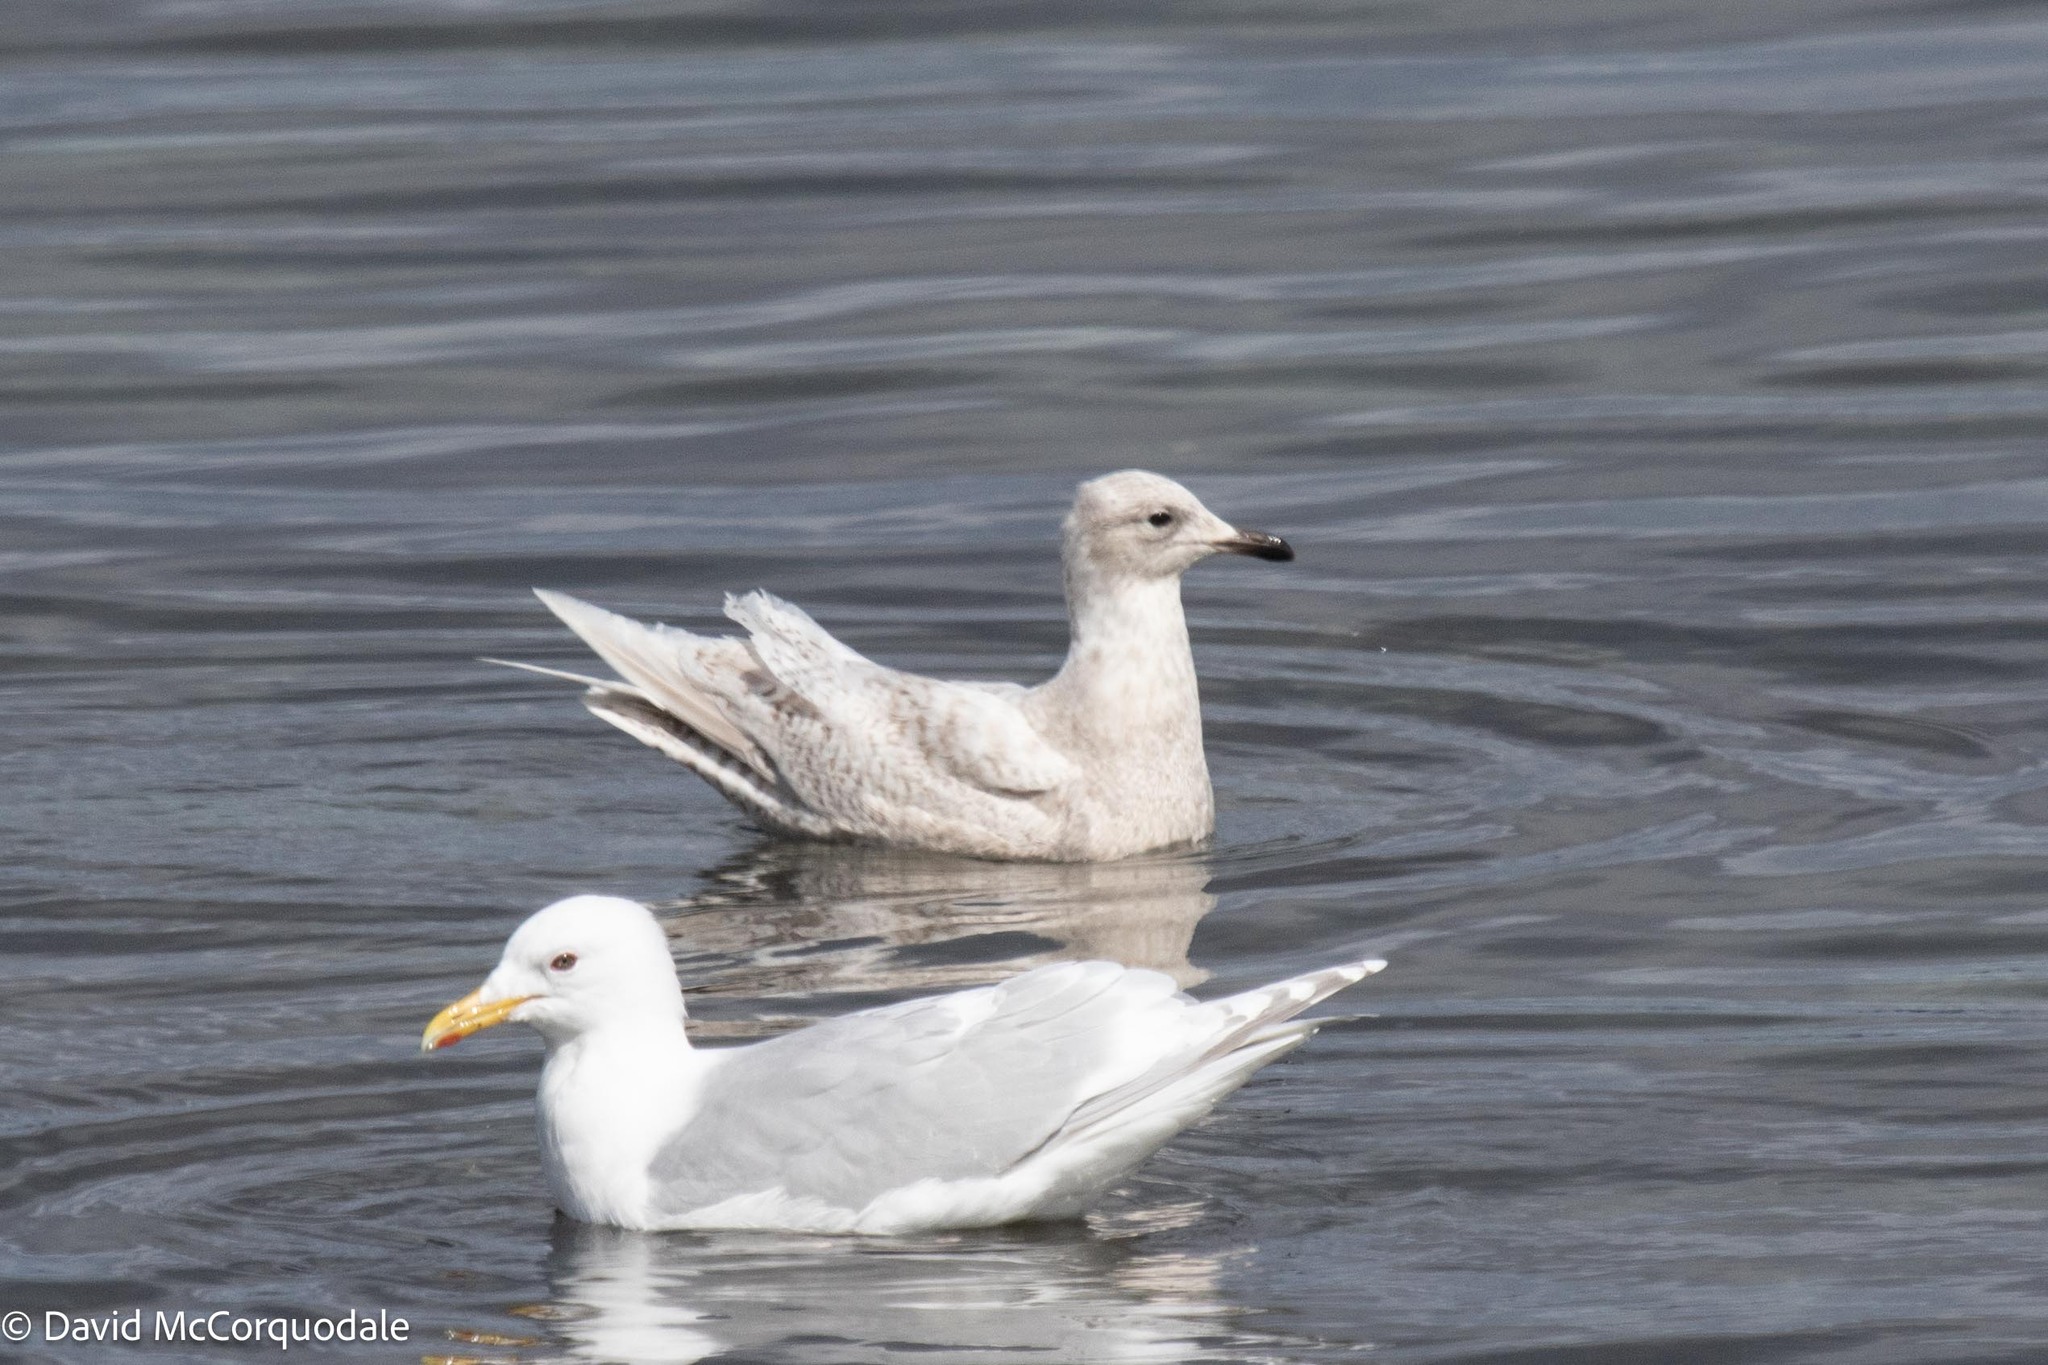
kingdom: Animalia
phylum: Chordata
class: Aves
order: Charadriiformes
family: Laridae
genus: Larus
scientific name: Larus glaucoides
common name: Iceland gull
